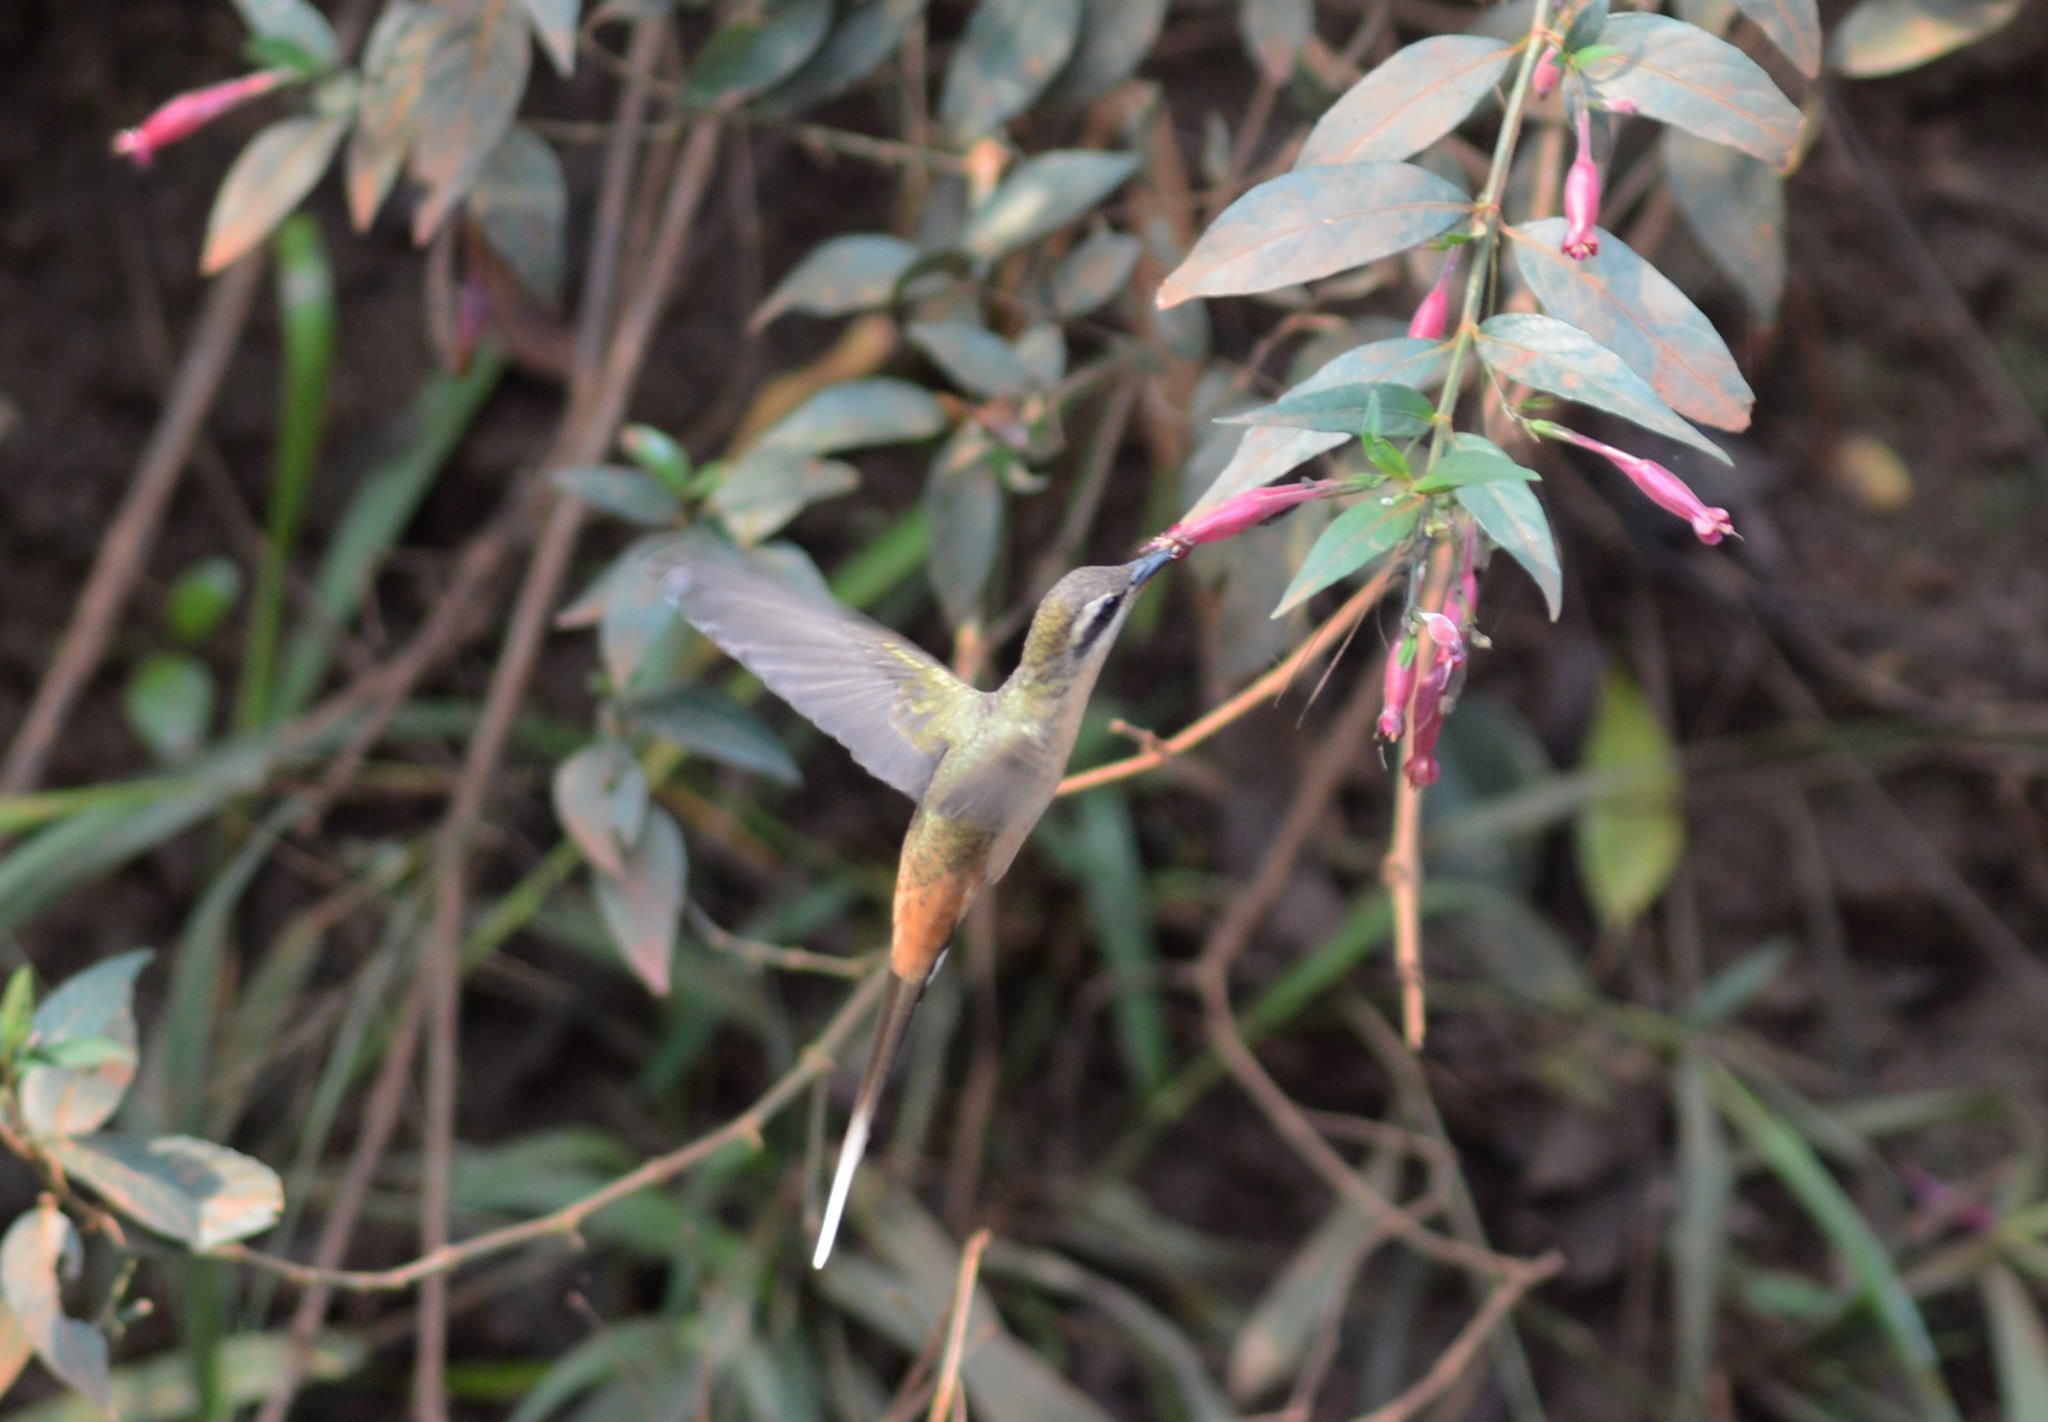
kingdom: Animalia
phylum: Chordata
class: Aves
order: Apodiformes
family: Trochilidae
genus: Phaethornis
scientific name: Phaethornis pretrei
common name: Planalto hermit
